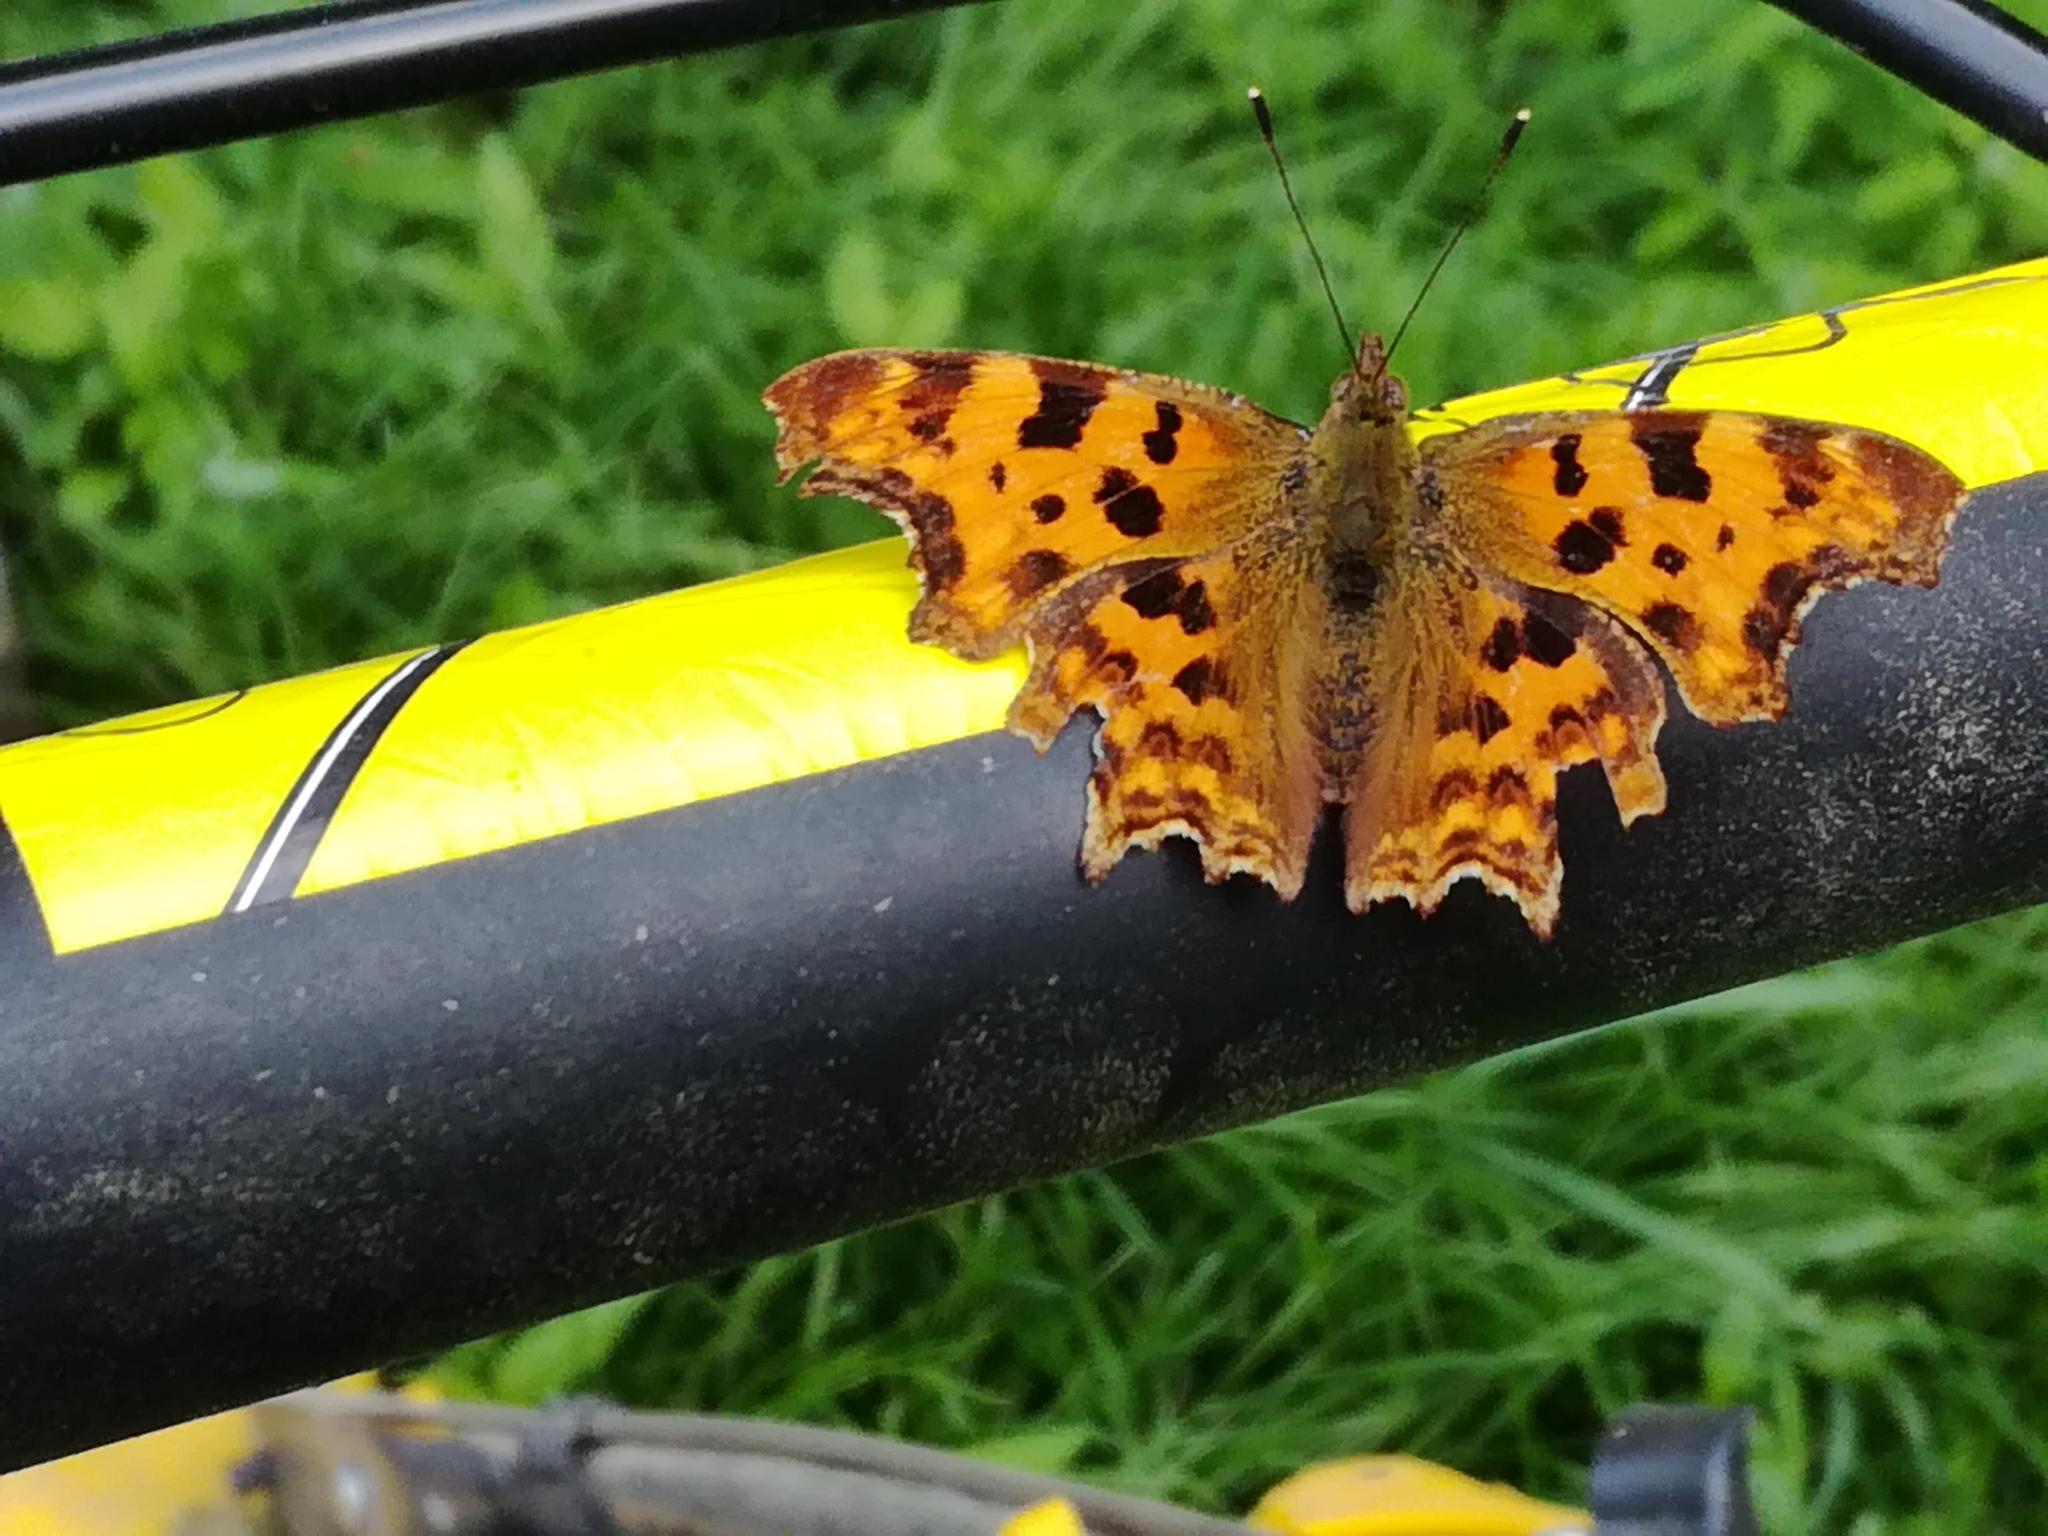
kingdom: Animalia
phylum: Arthropoda
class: Insecta
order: Lepidoptera
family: Nymphalidae
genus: Polygonia
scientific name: Polygonia c-album
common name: Comma
